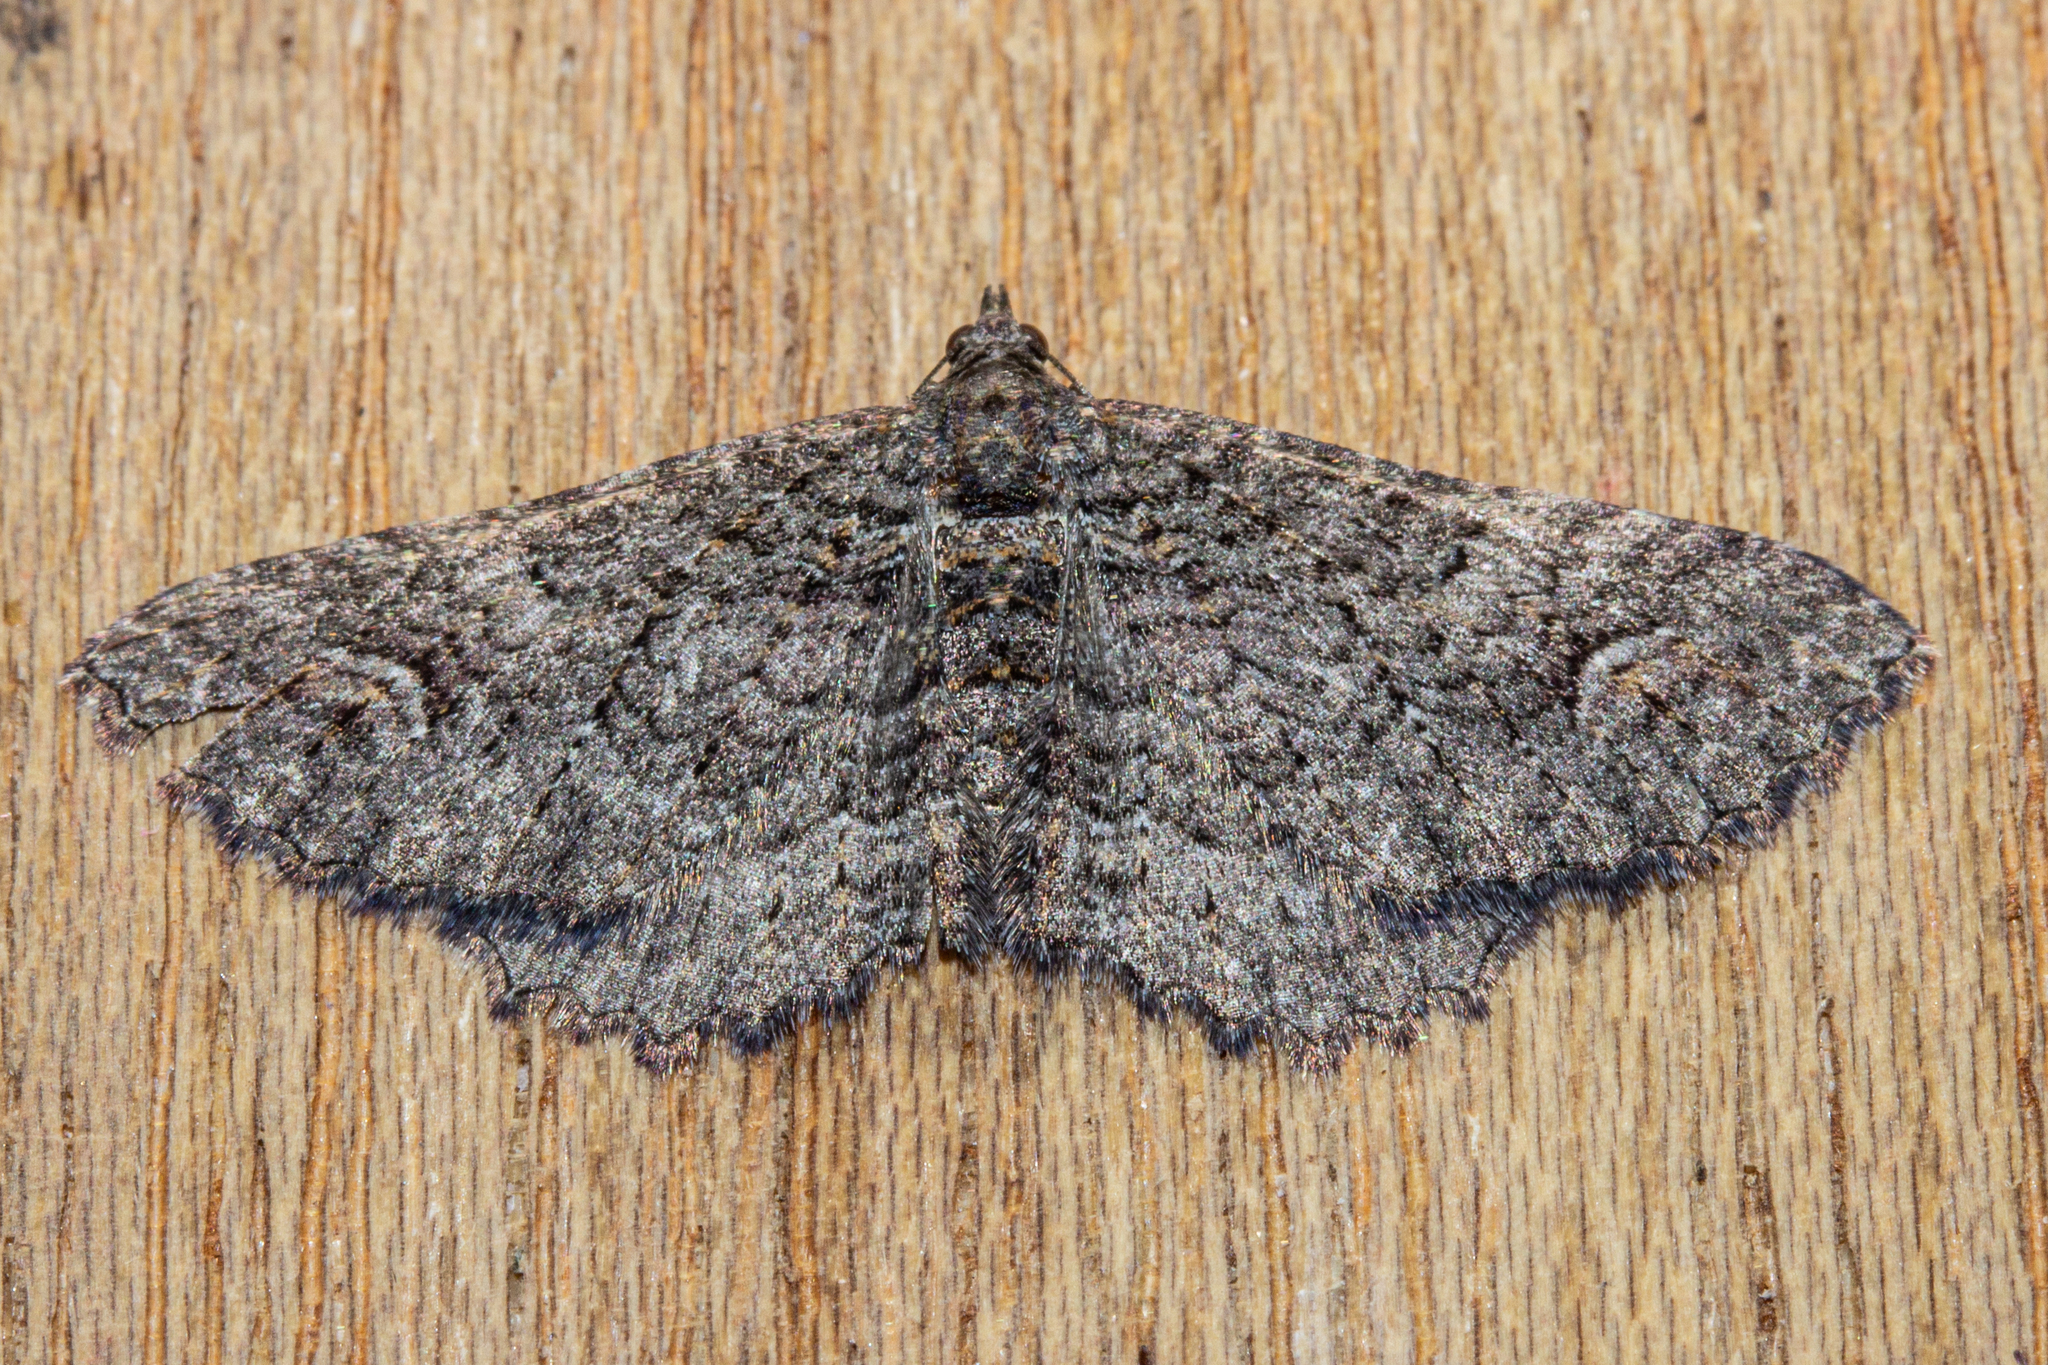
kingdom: Animalia
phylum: Arthropoda
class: Insecta
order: Lepidoptera
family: Geometridae
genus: Horisme
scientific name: Horisme suppressaria
